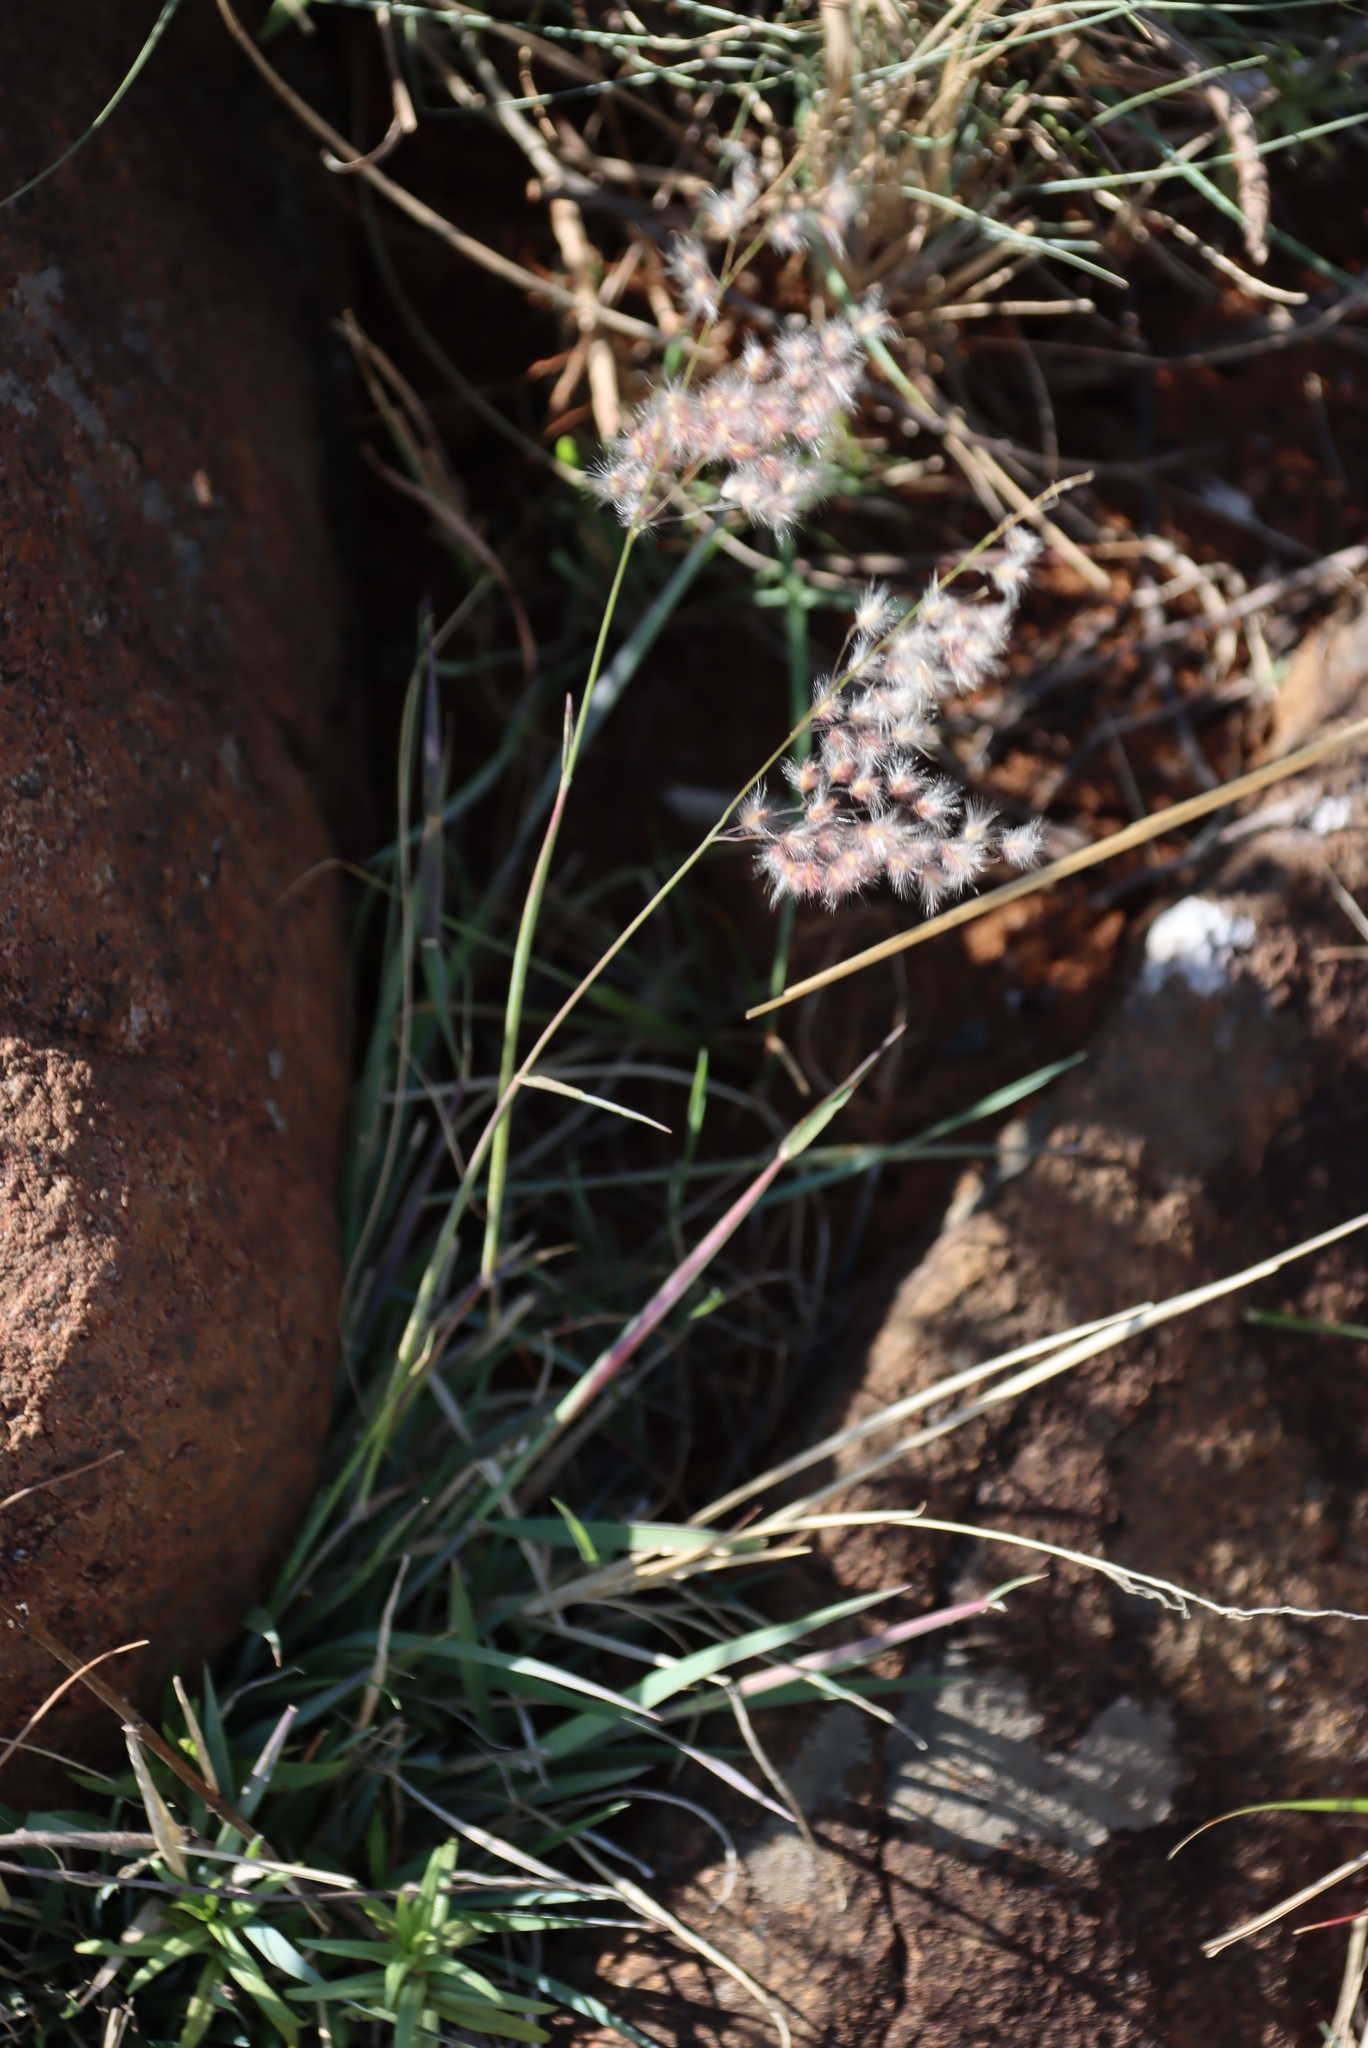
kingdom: Plantae
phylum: Tracheophyta
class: Liliopsida
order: Poales
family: Poaceae
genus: Melinis
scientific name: Melinis repens
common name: Rose natal grass
